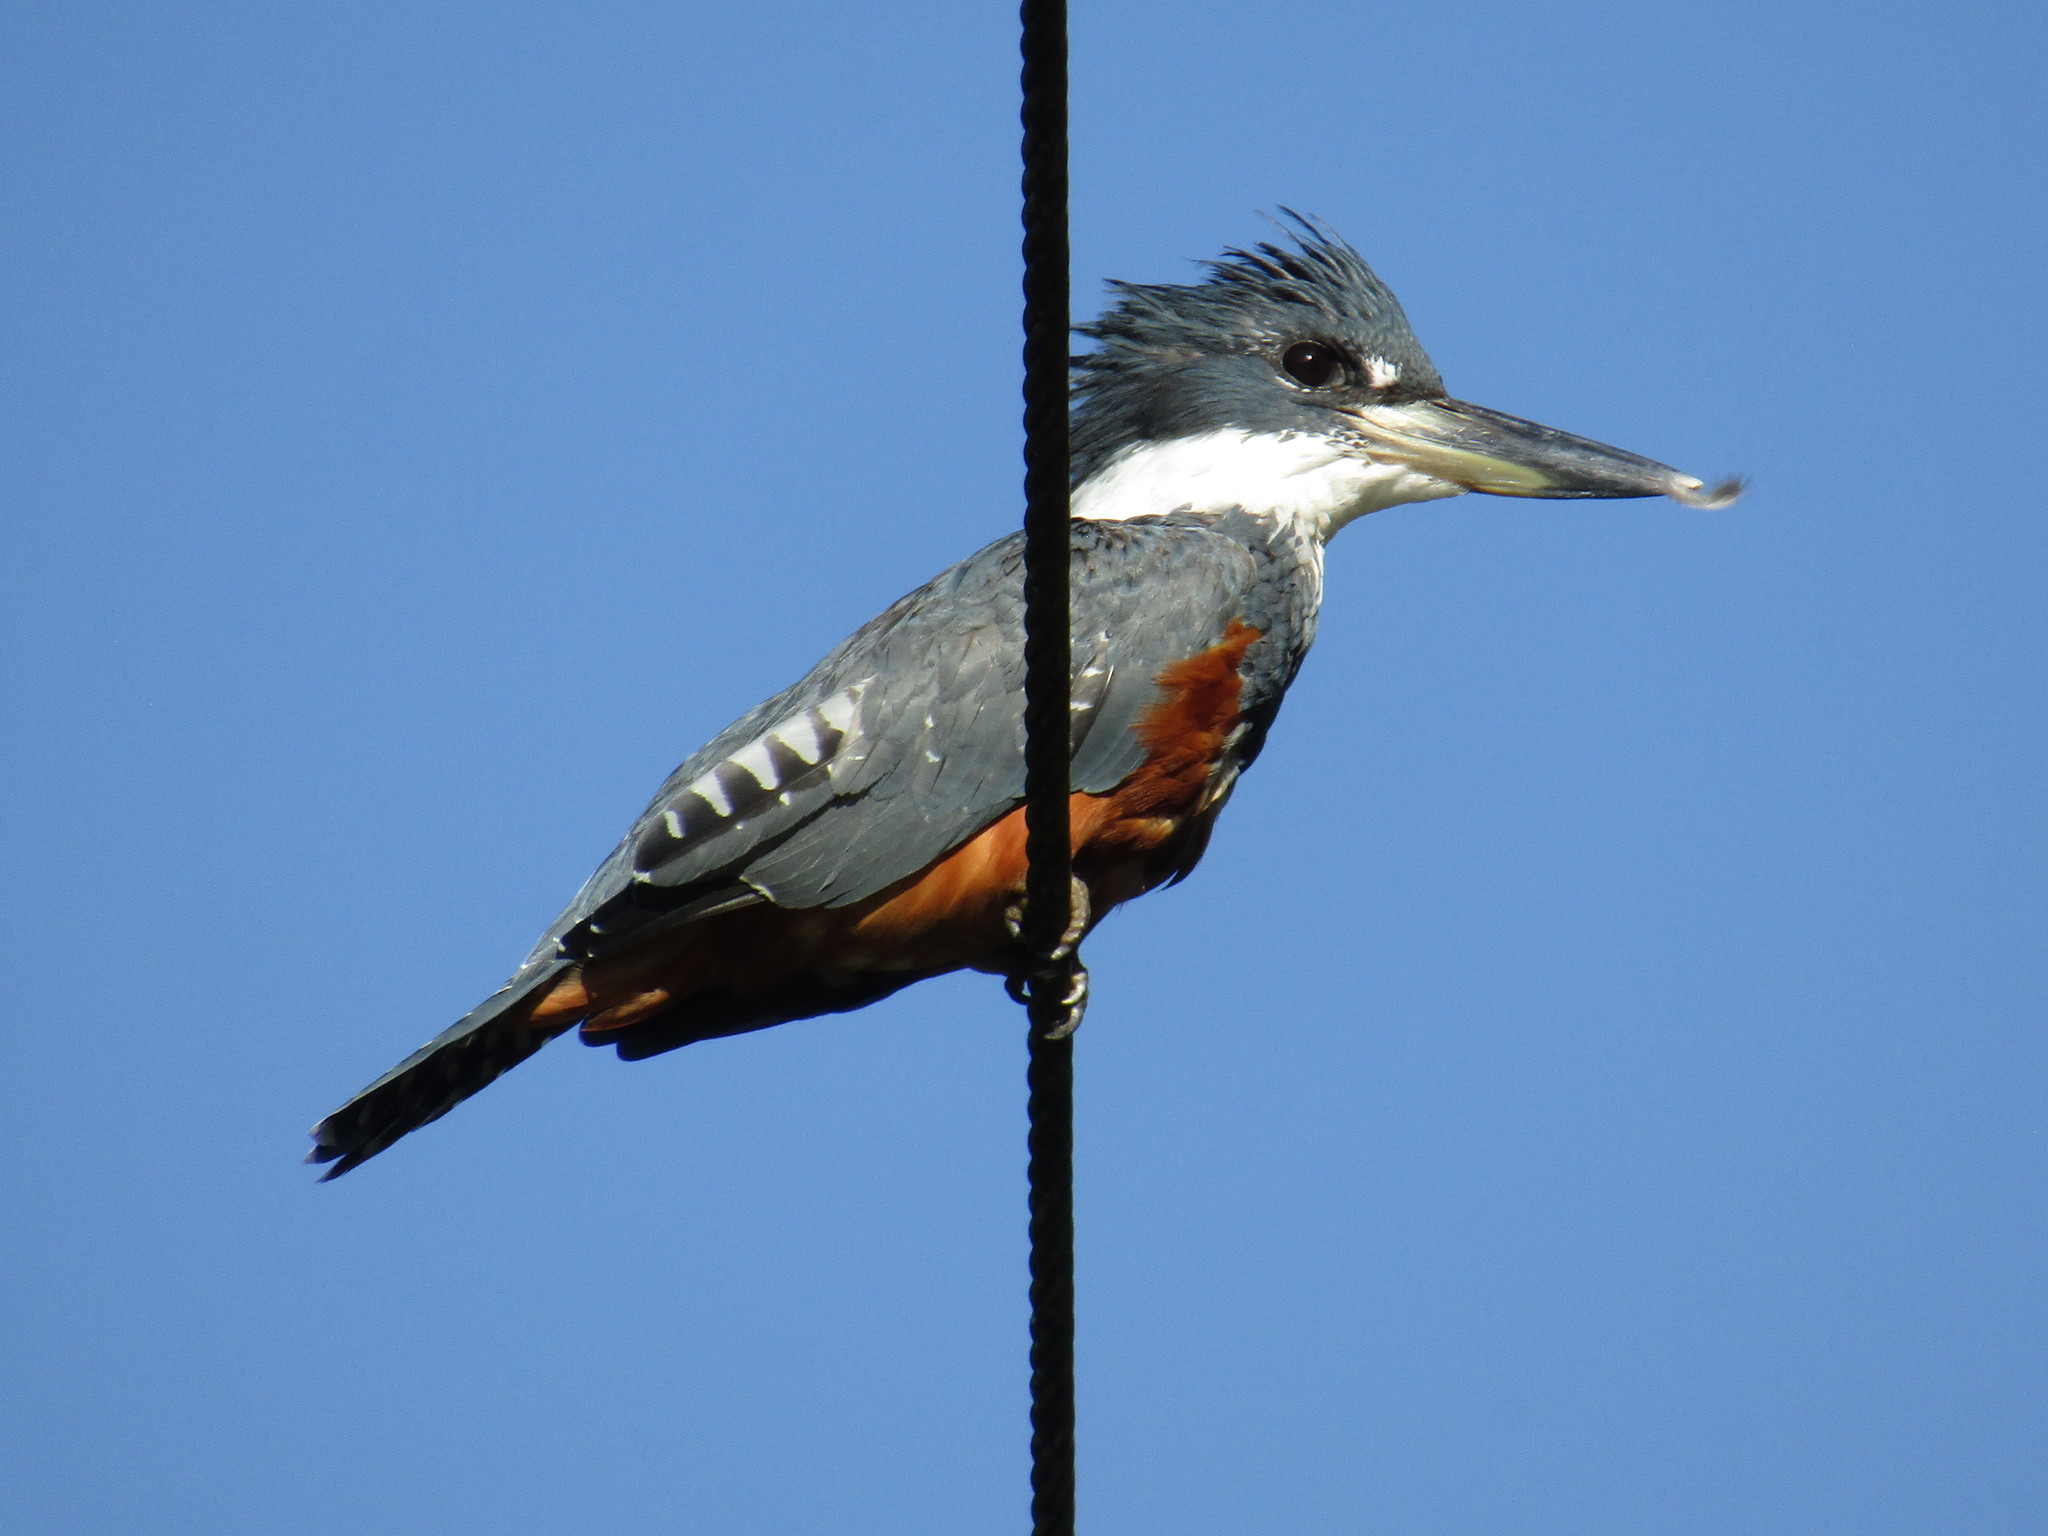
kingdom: Animalia
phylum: Chordata
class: Aves
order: Coraciiformes
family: Alcedinidae
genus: Megaceryle
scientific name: Megaceryle torquata
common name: Ringed kingfisher
